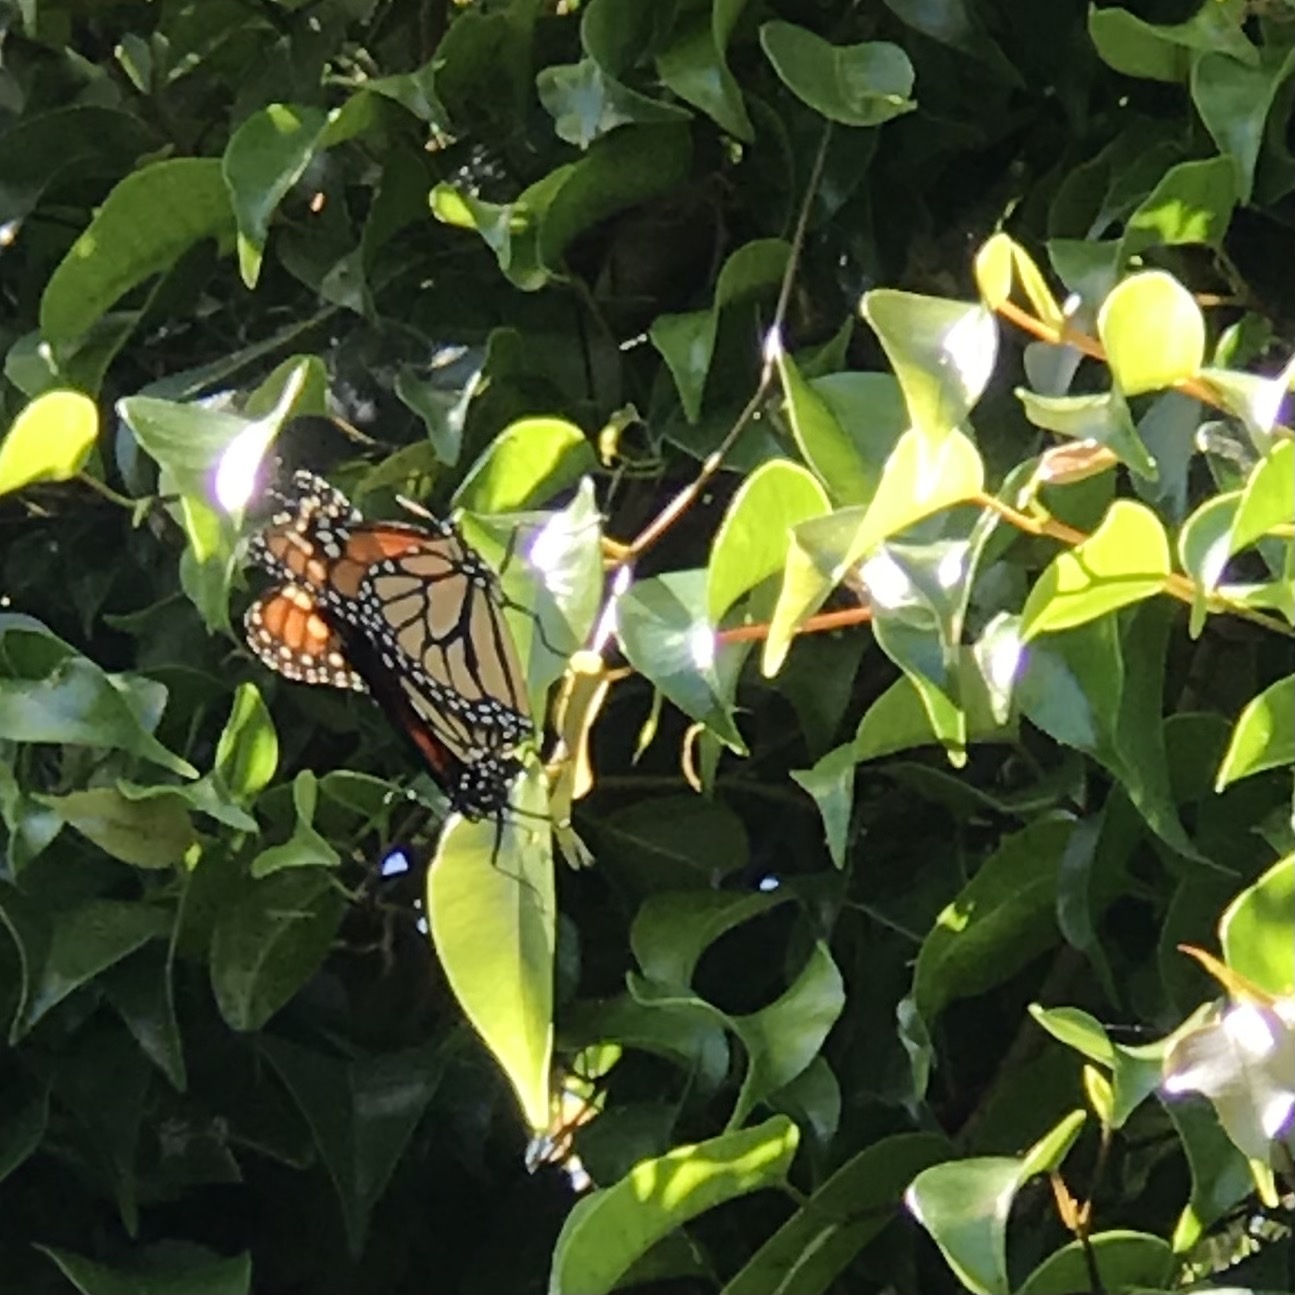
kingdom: Animalia
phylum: Arthropoda
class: Insecta
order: Lepidoptera
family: Nymphalidae
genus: Danaus
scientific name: Danaus plexippus
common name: Monarch
